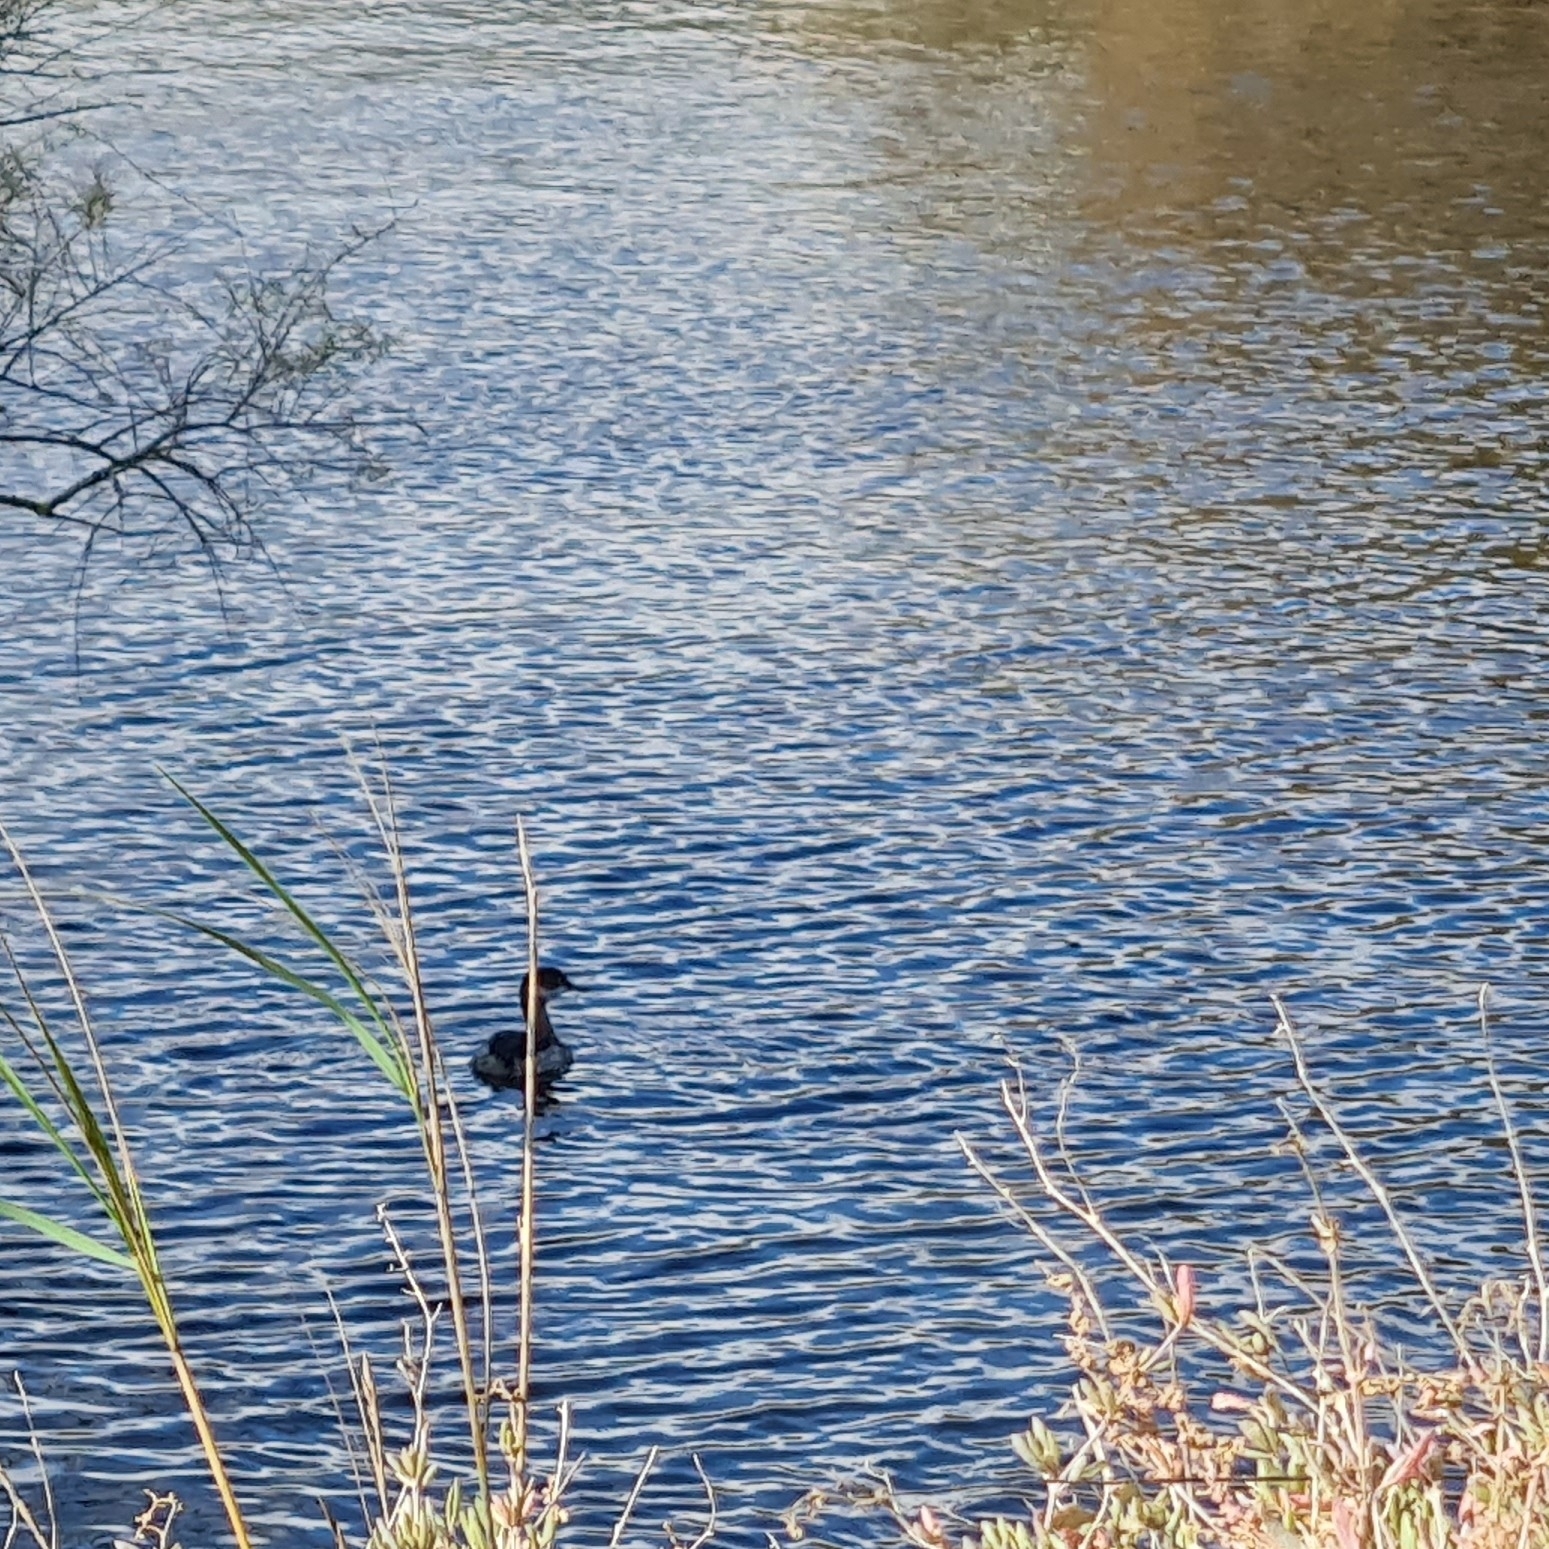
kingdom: Animalia
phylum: Chordata
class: Aves
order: Podicipediformes
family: Podicipedidae
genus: Podiceps
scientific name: Podiceps nigricollis
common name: Black-necked grebe
